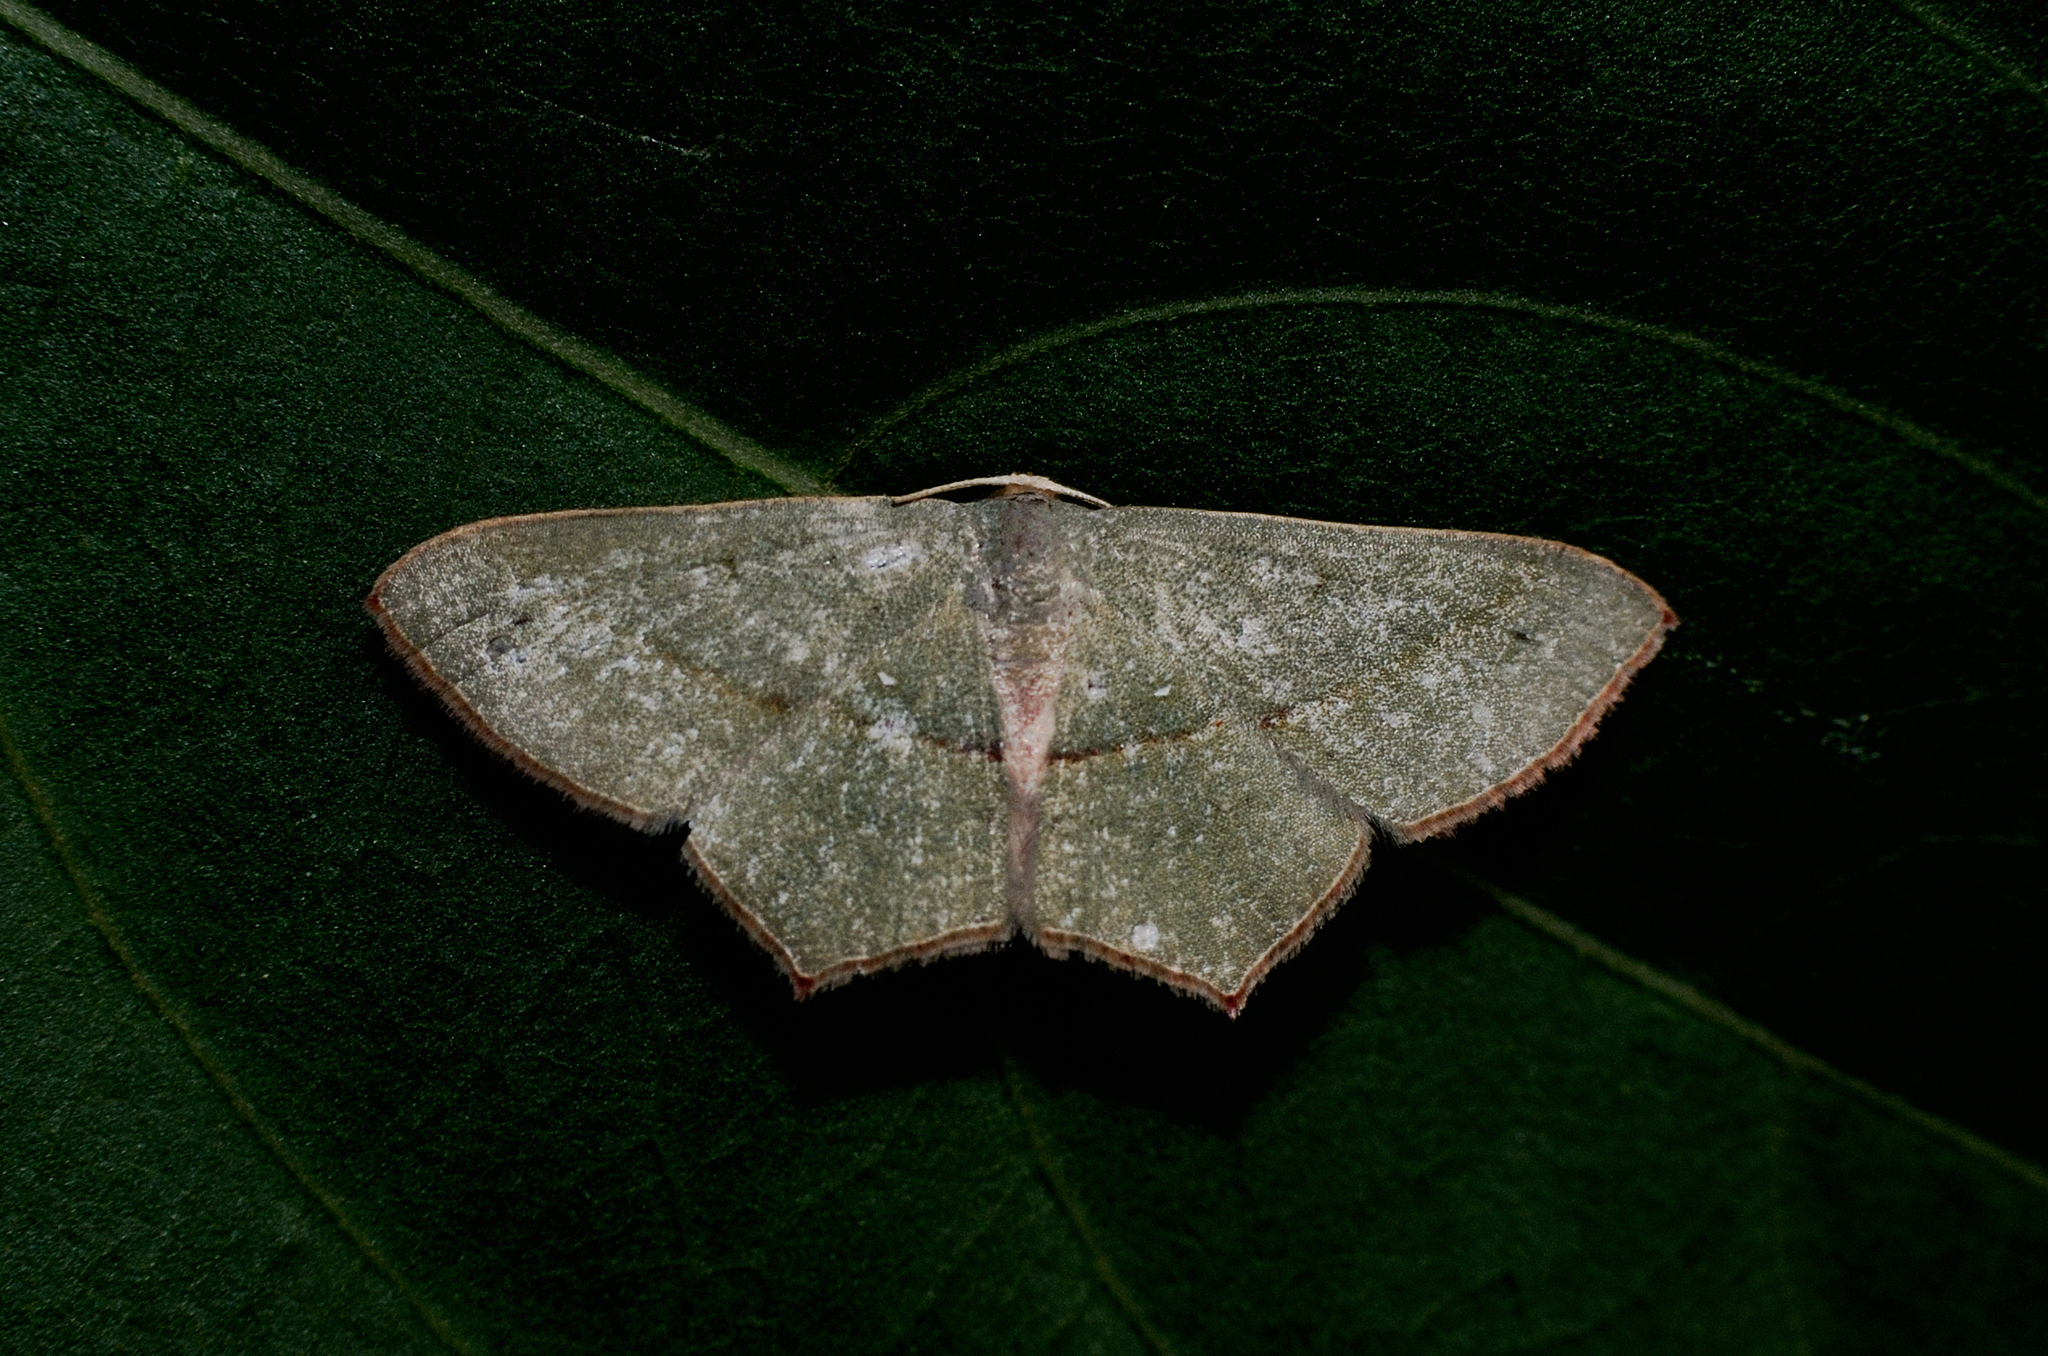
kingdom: Animalia
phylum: Arthropoda
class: Insecta
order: Lepidoptera
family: Geometridae
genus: Traminda
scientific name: Traminda mundissima
